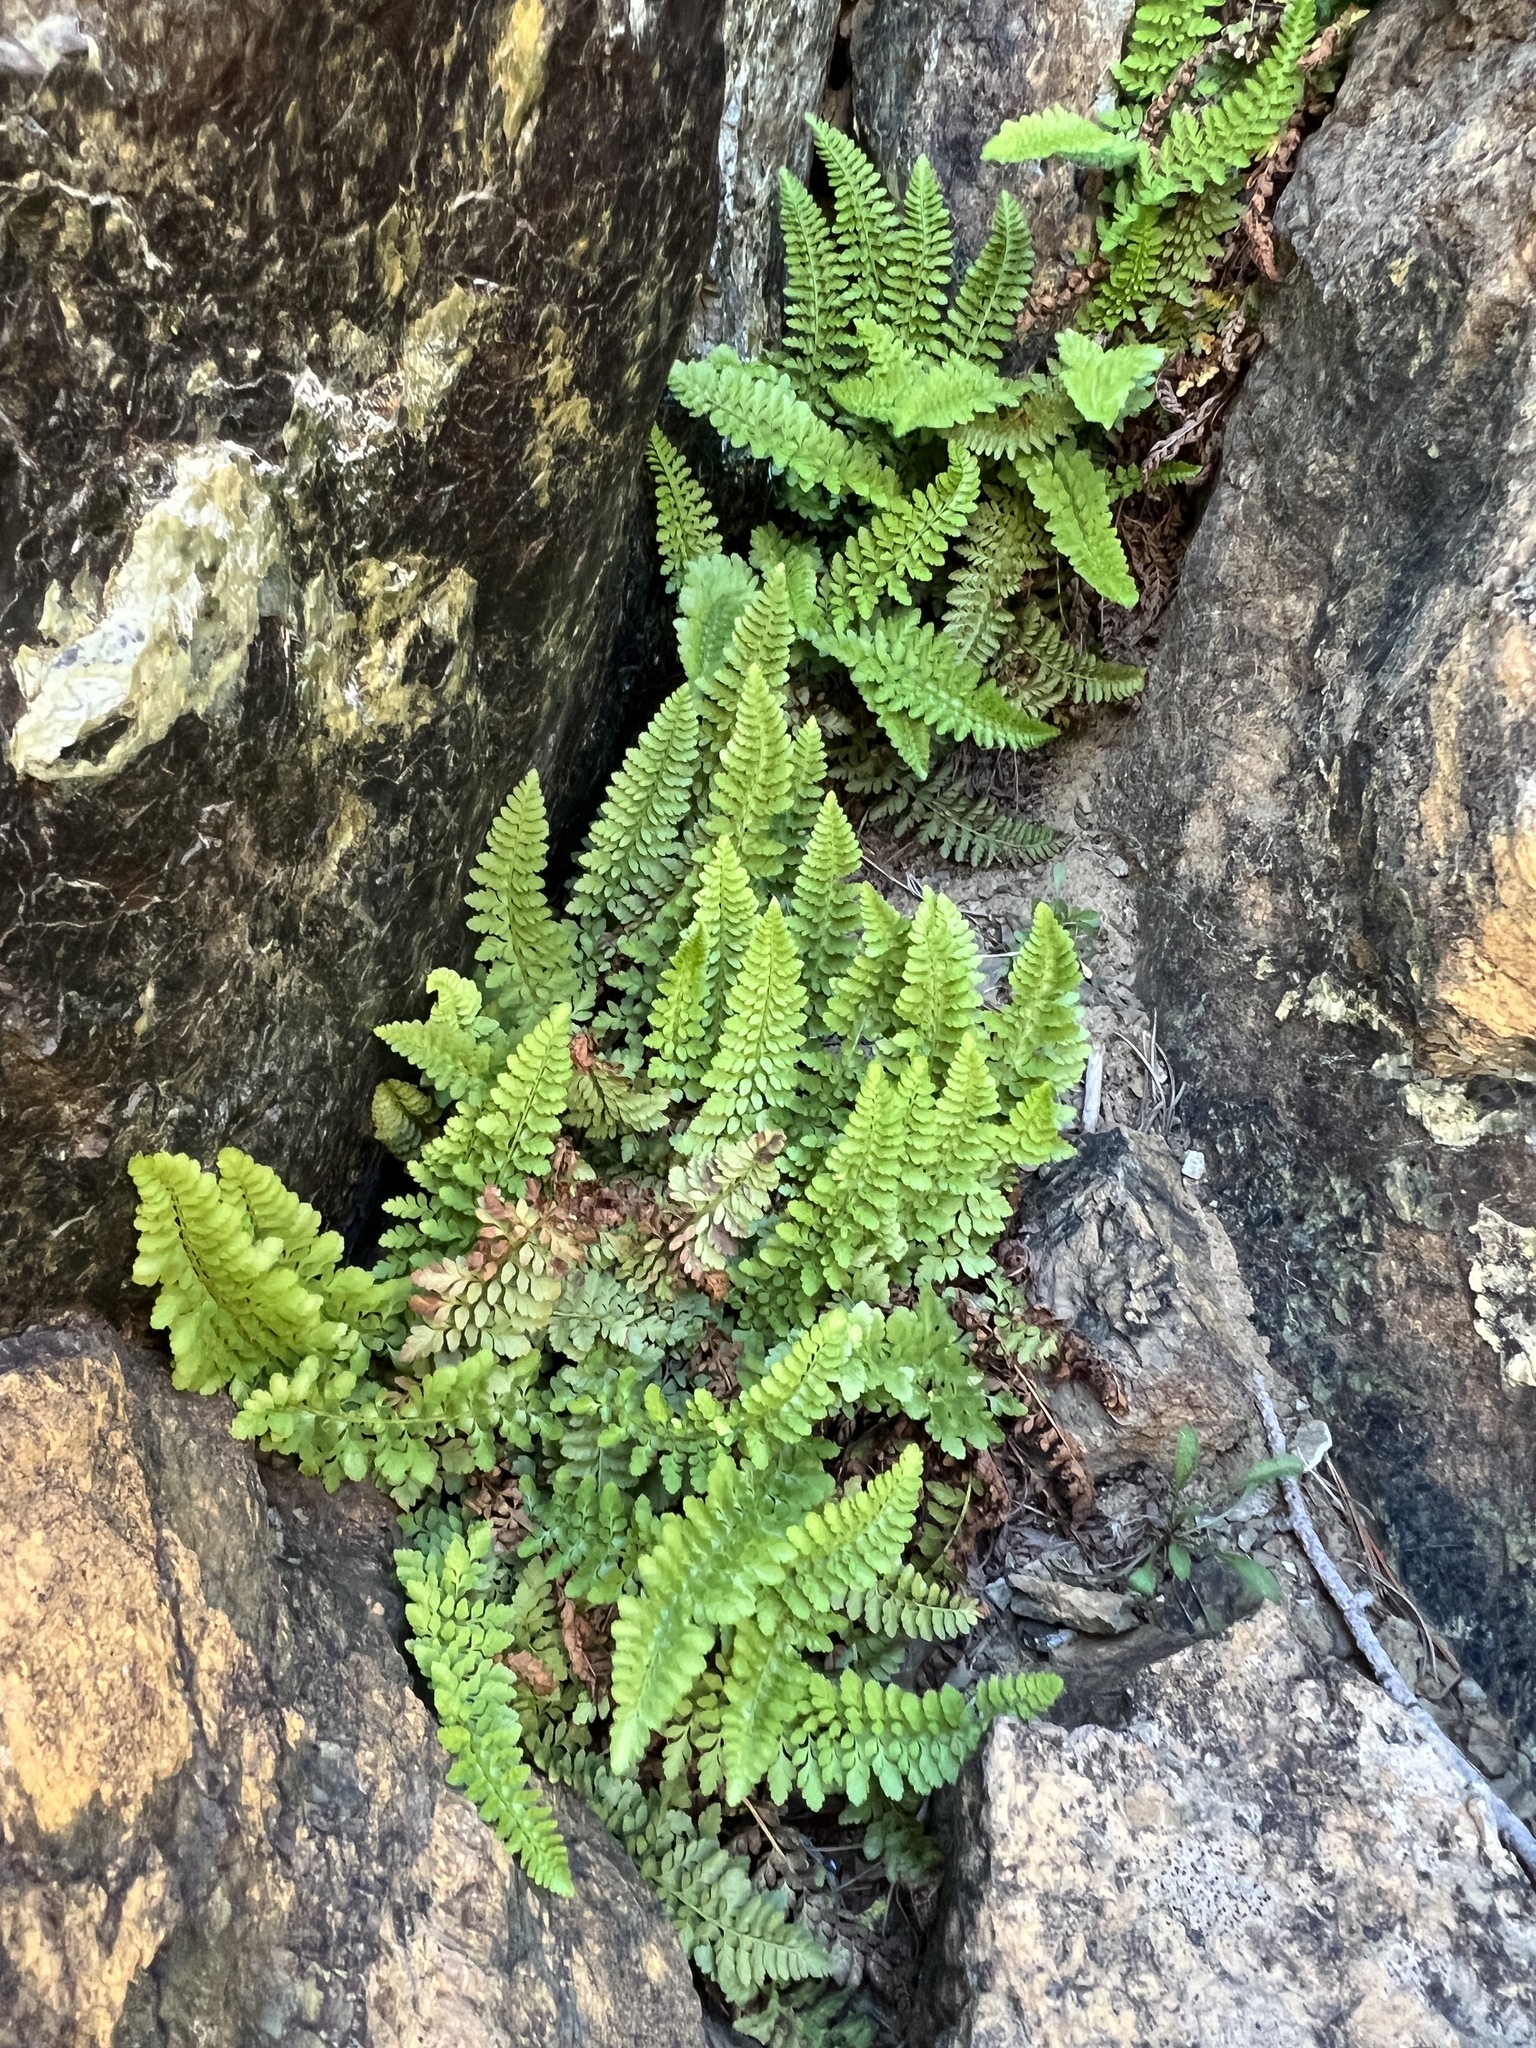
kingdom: Plantae
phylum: Tracheophyta
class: Polypodiopsida
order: Polypodiales
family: Dryopteridaceae
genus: Polystichum
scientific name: Polystichum lemmonii
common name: Lemmon's holly fern
